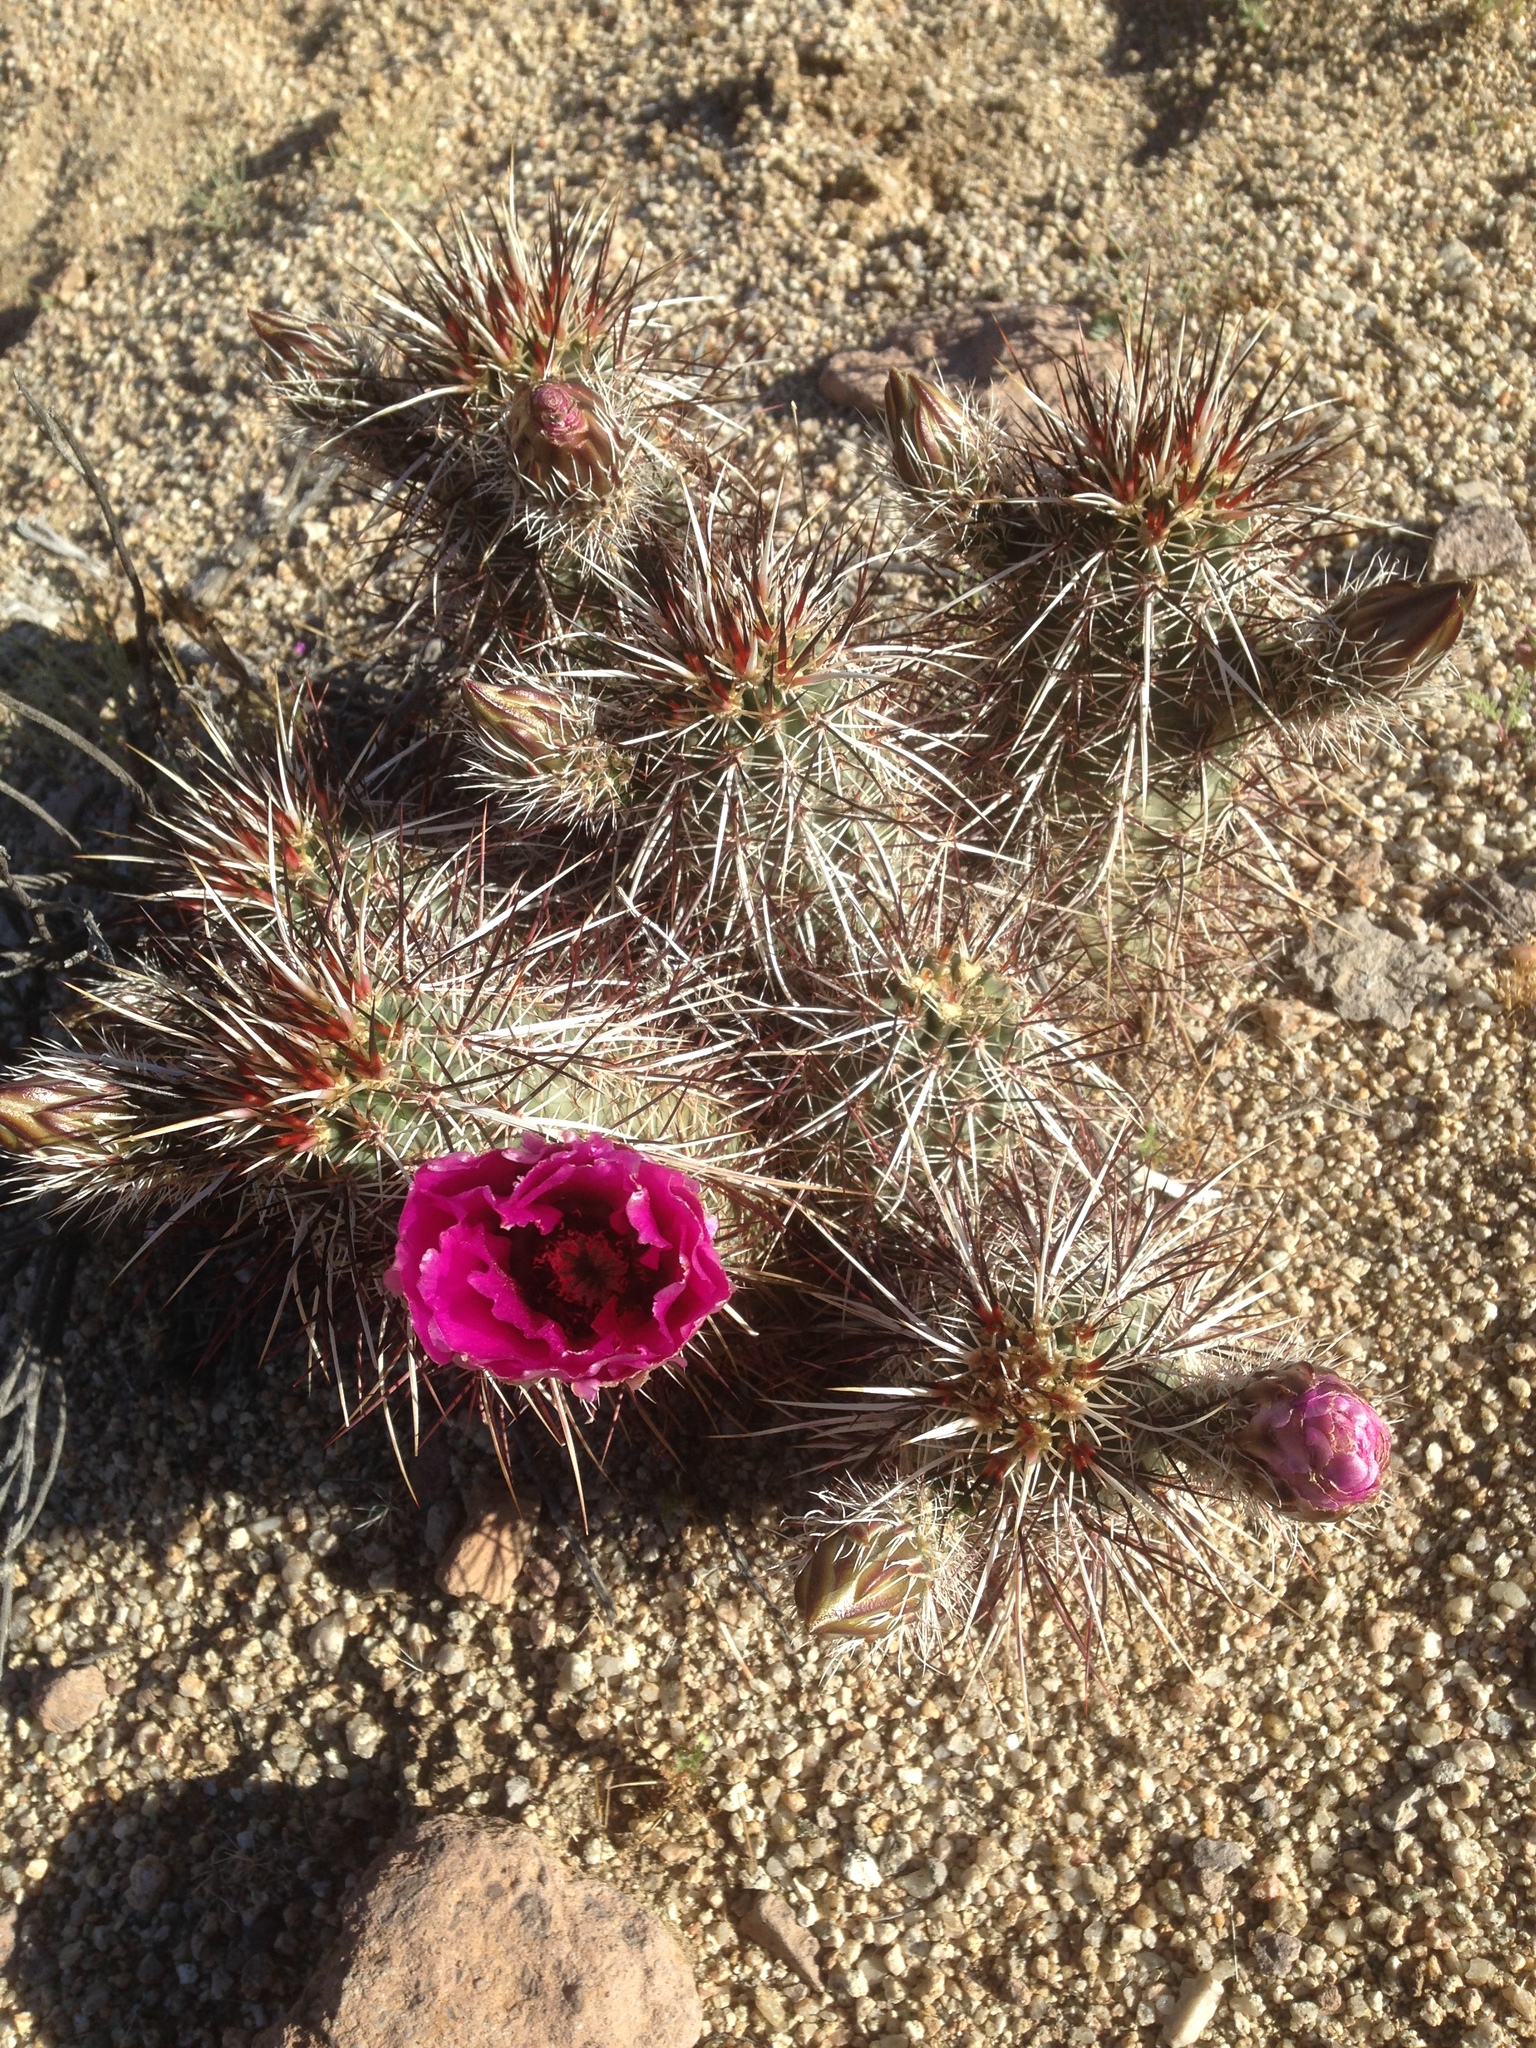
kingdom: Plantae
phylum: Tracheophyta
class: Magnoliopsida
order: Caryophyllales
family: Cactaceae
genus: Echinocereus
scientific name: Echinocereus engelmannii
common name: Engelmann's hedgehog cactus
